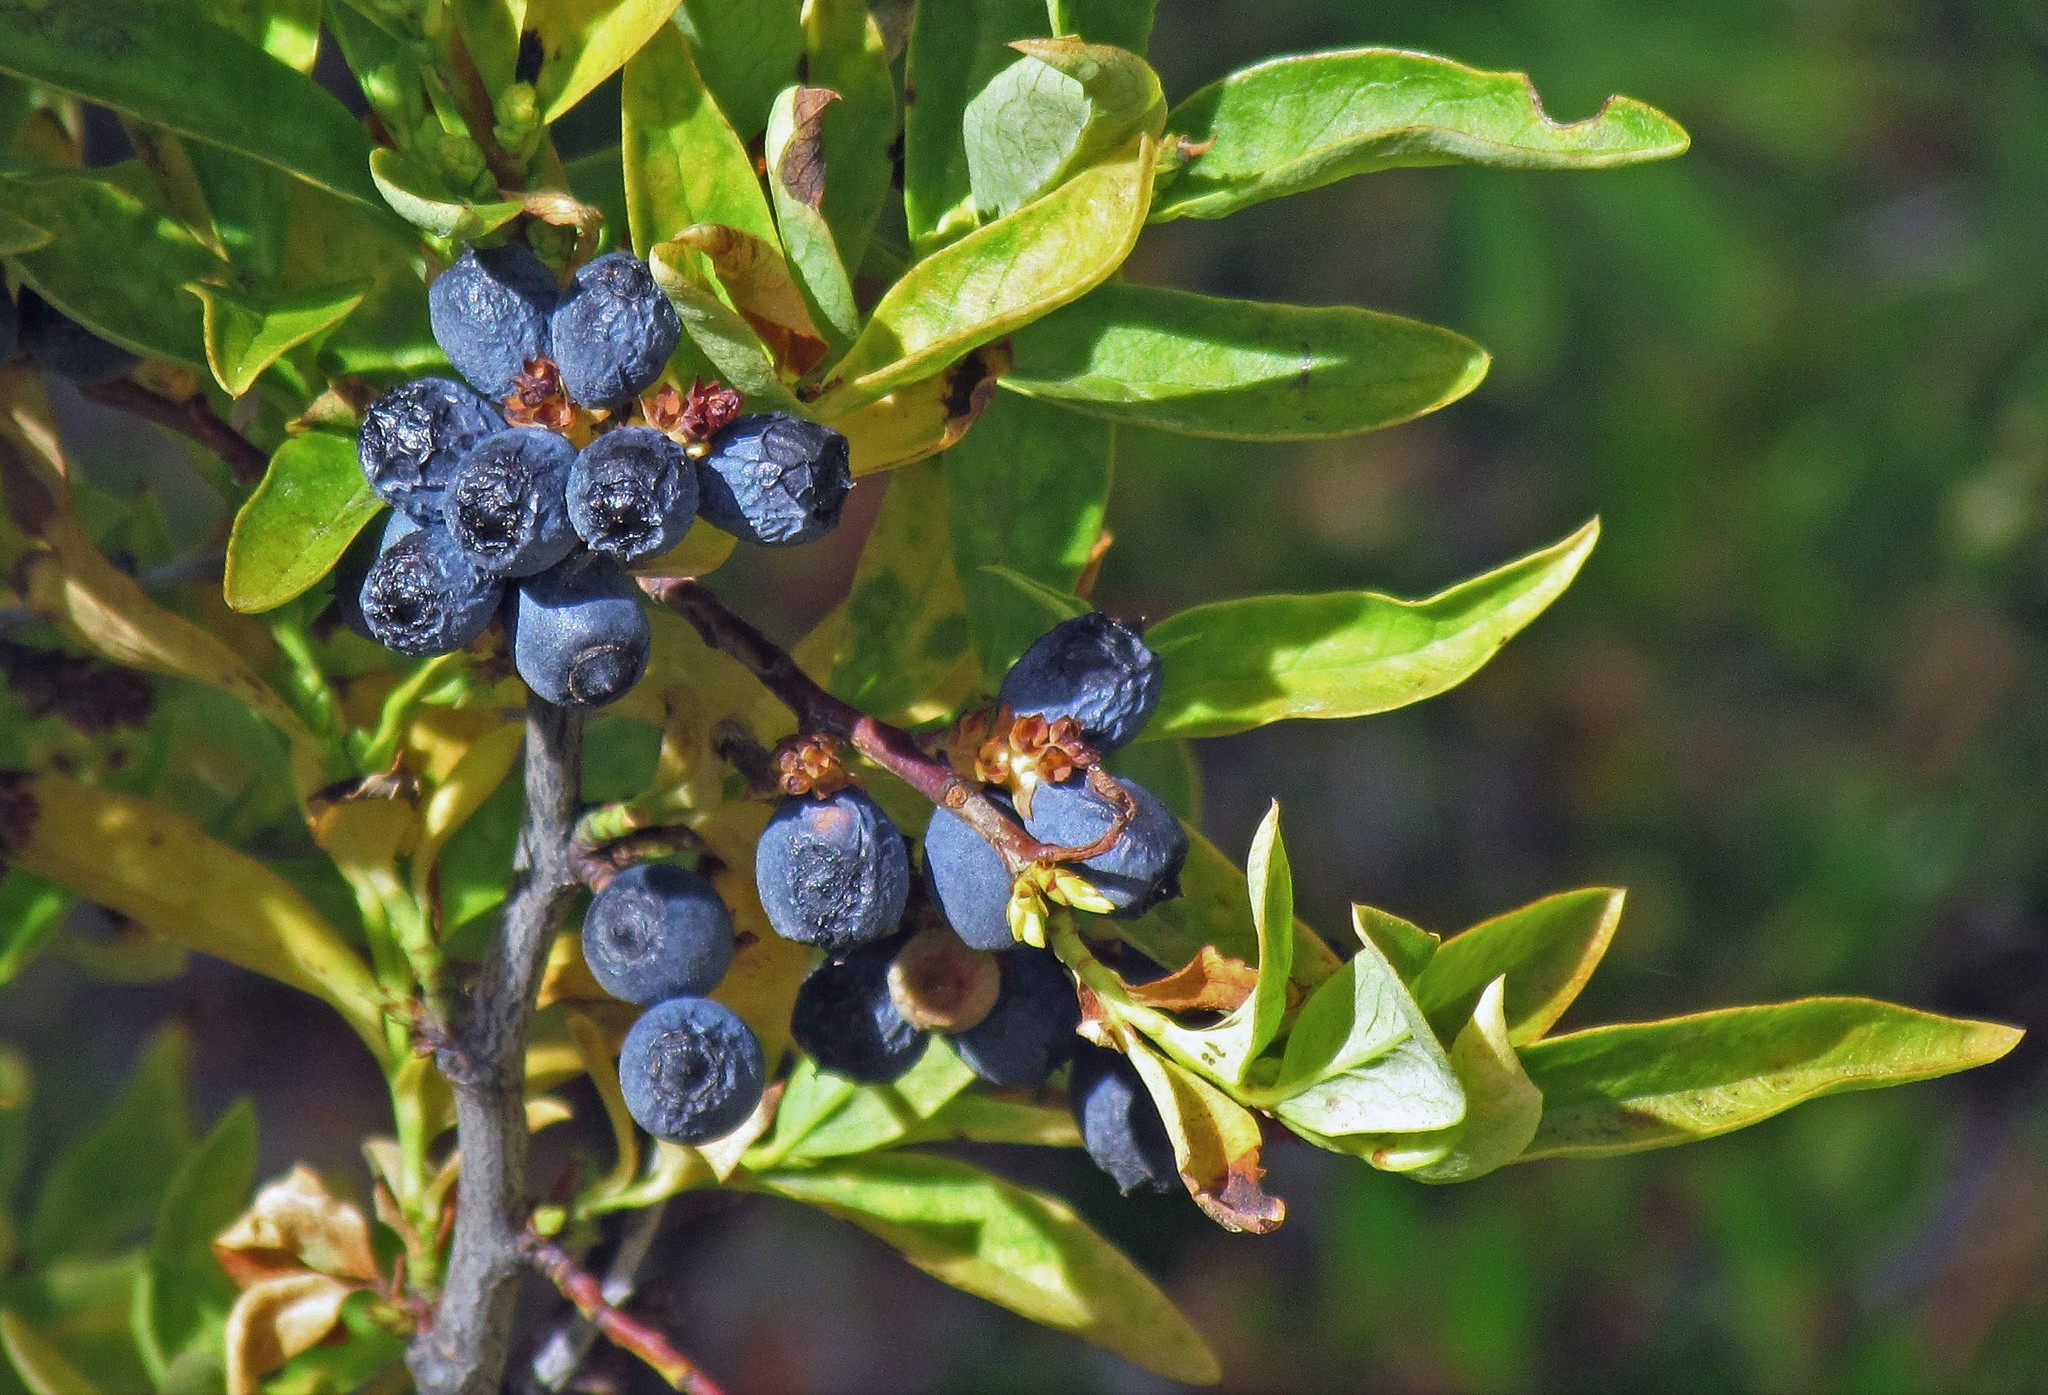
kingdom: Plantae
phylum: Tracheophyta
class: Magnoliopsida
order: Santalales
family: Santalaceae
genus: Myoschilos
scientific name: Myoschilos oblongum
